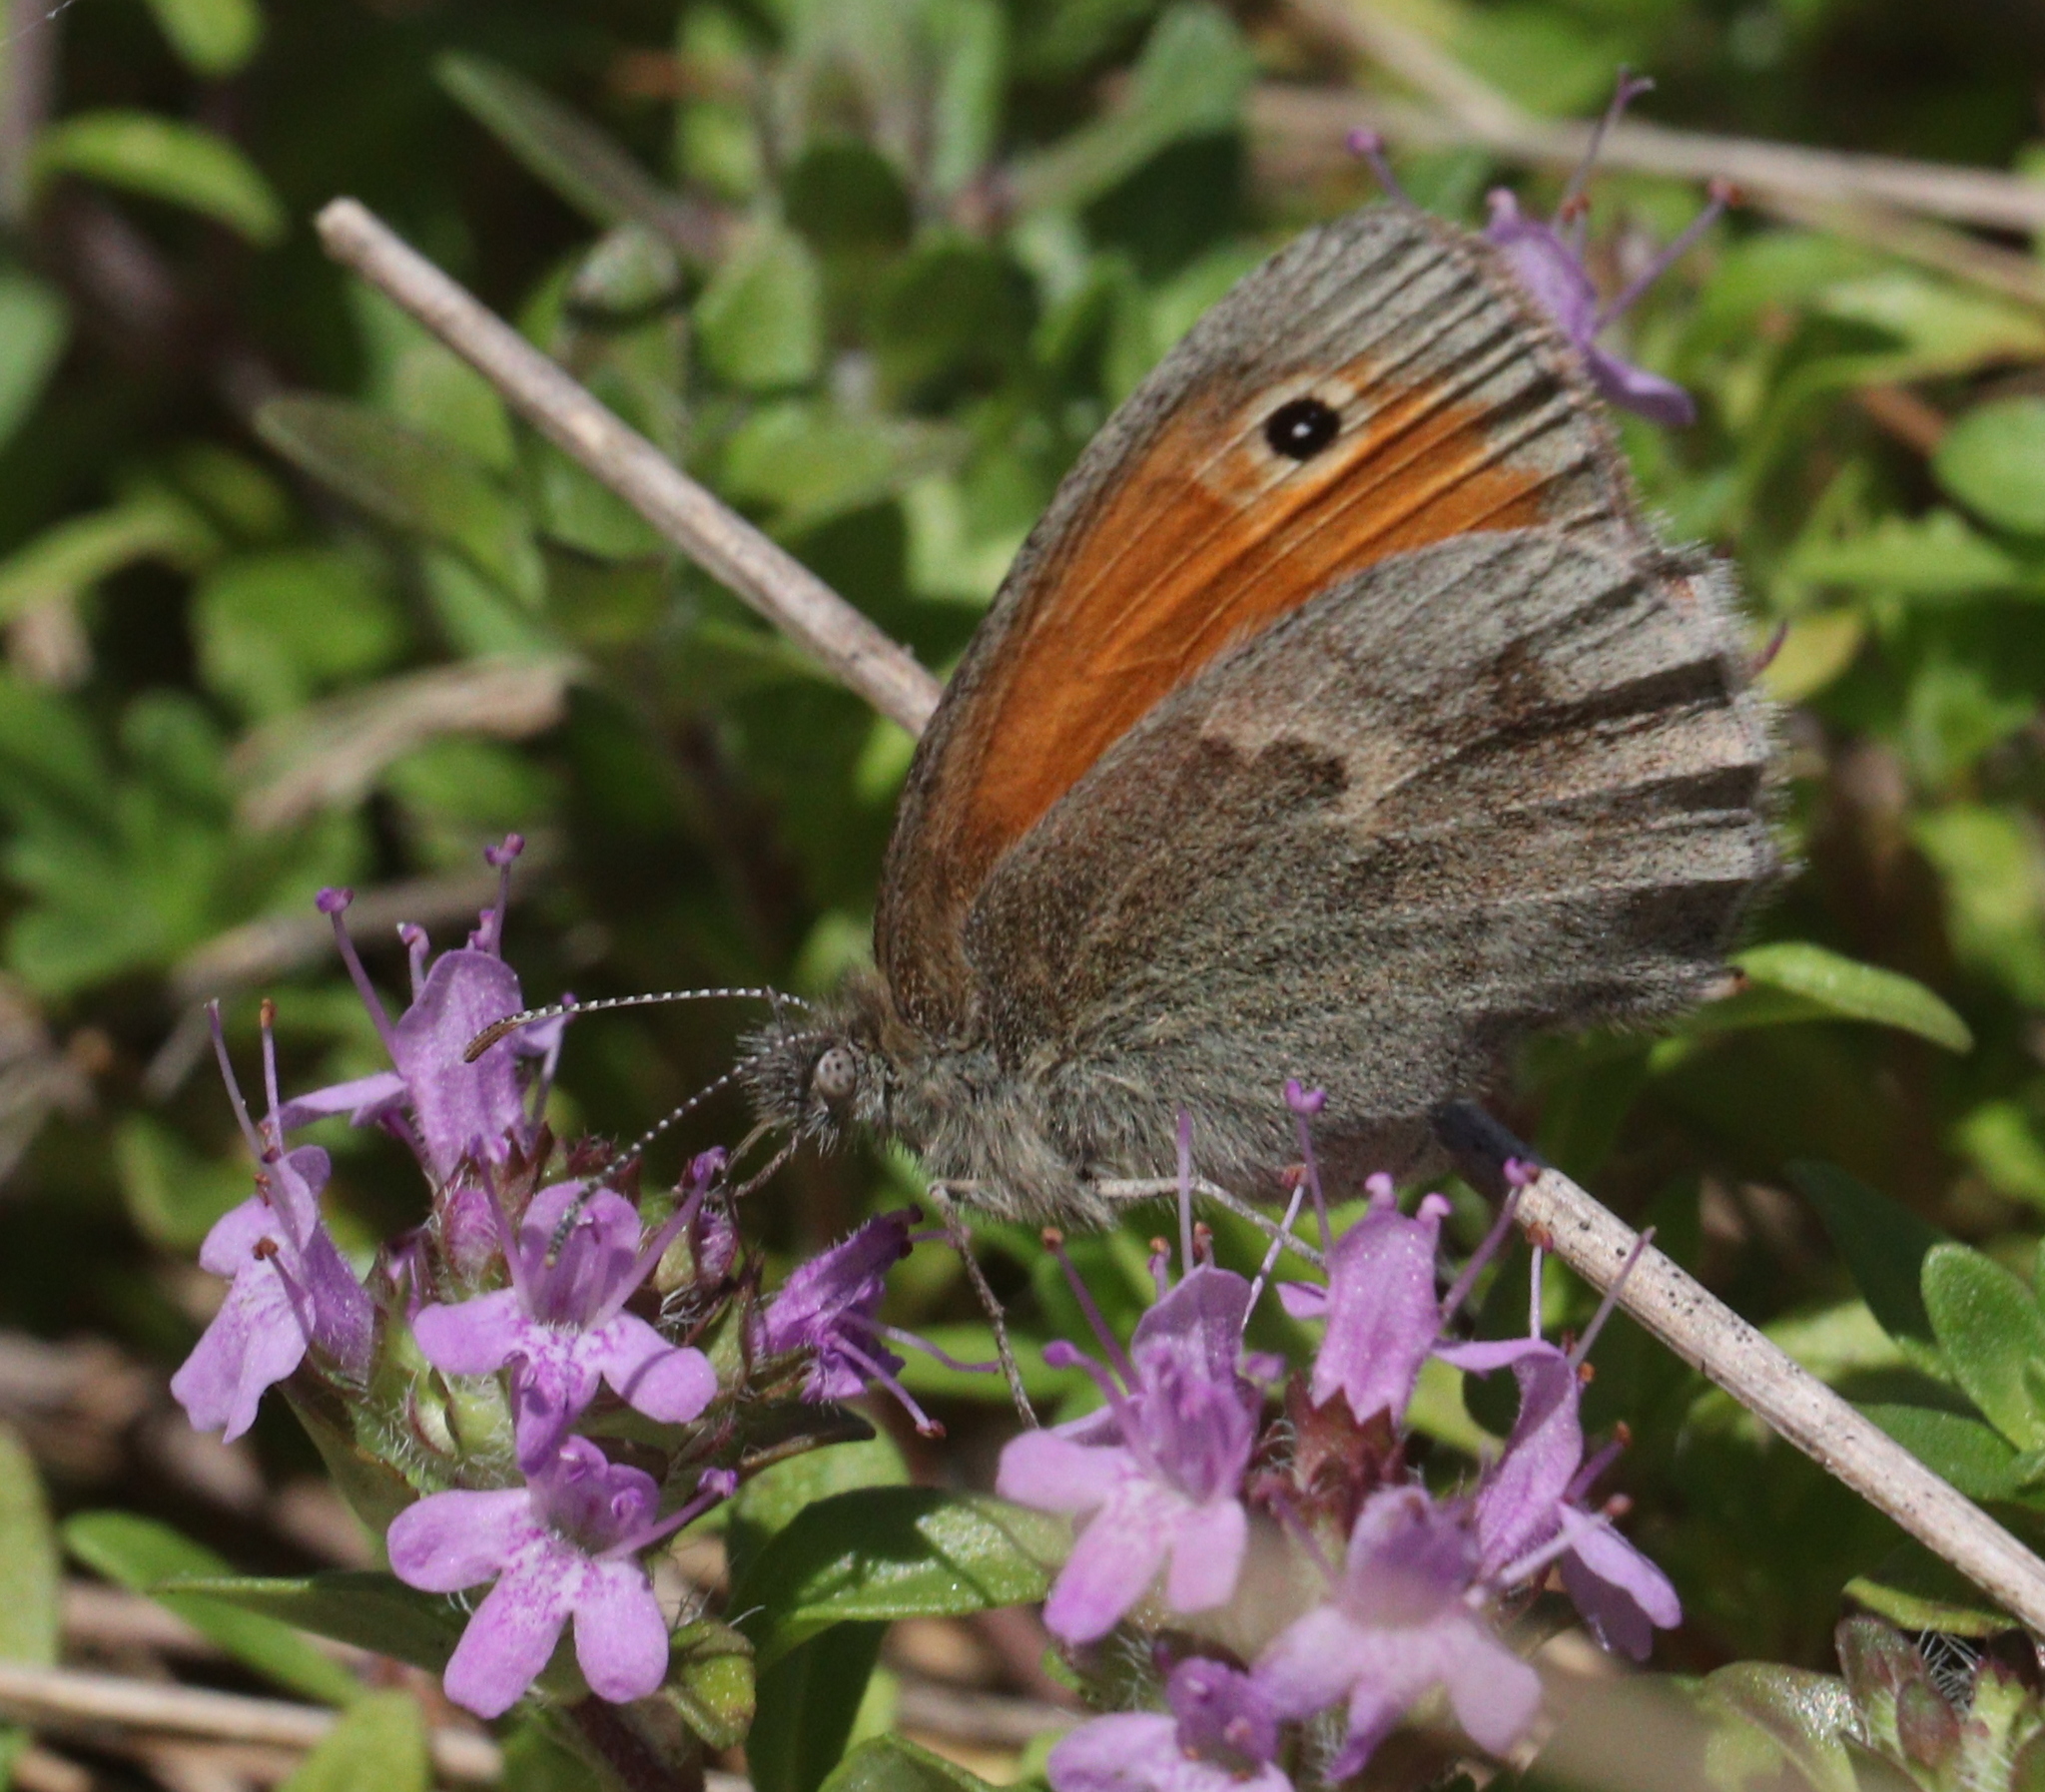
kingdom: Animalia
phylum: Arthropoda
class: Insecta
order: Lepidoptera
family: Nymphalidae
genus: Coenonympha
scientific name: Coenonympha pamphilus
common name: Small heath
